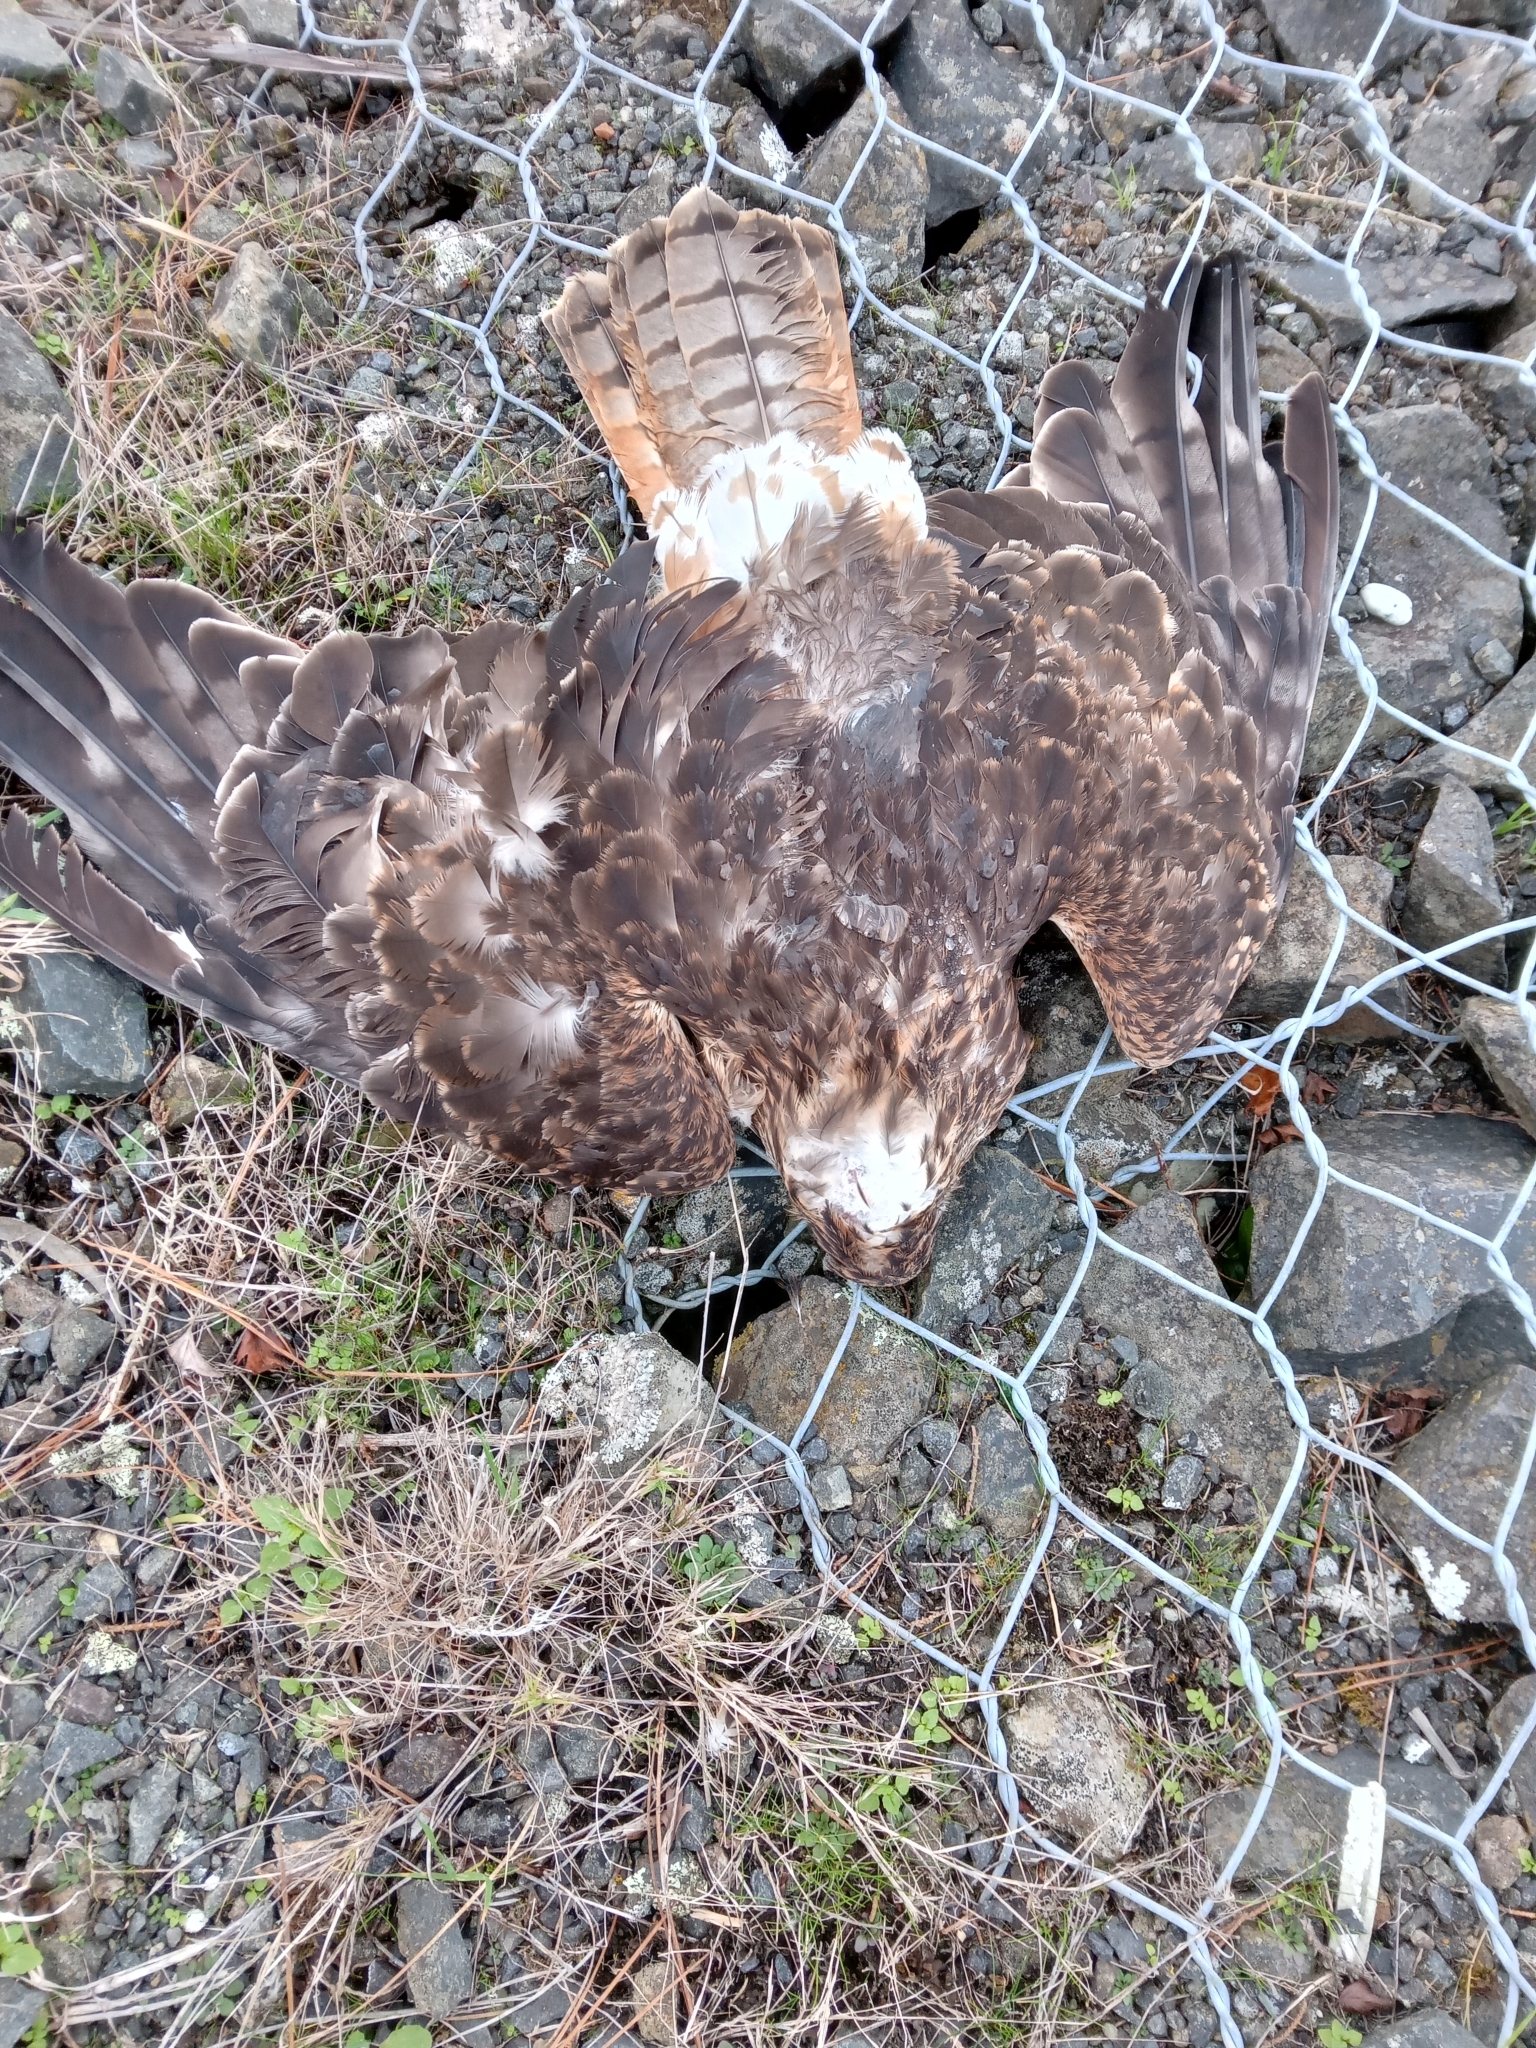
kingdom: Animalia
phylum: Chordata
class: Aves
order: Accipitriformes
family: Accipitridae
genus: Circus
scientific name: Circus approximans
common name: Swamp harrier
